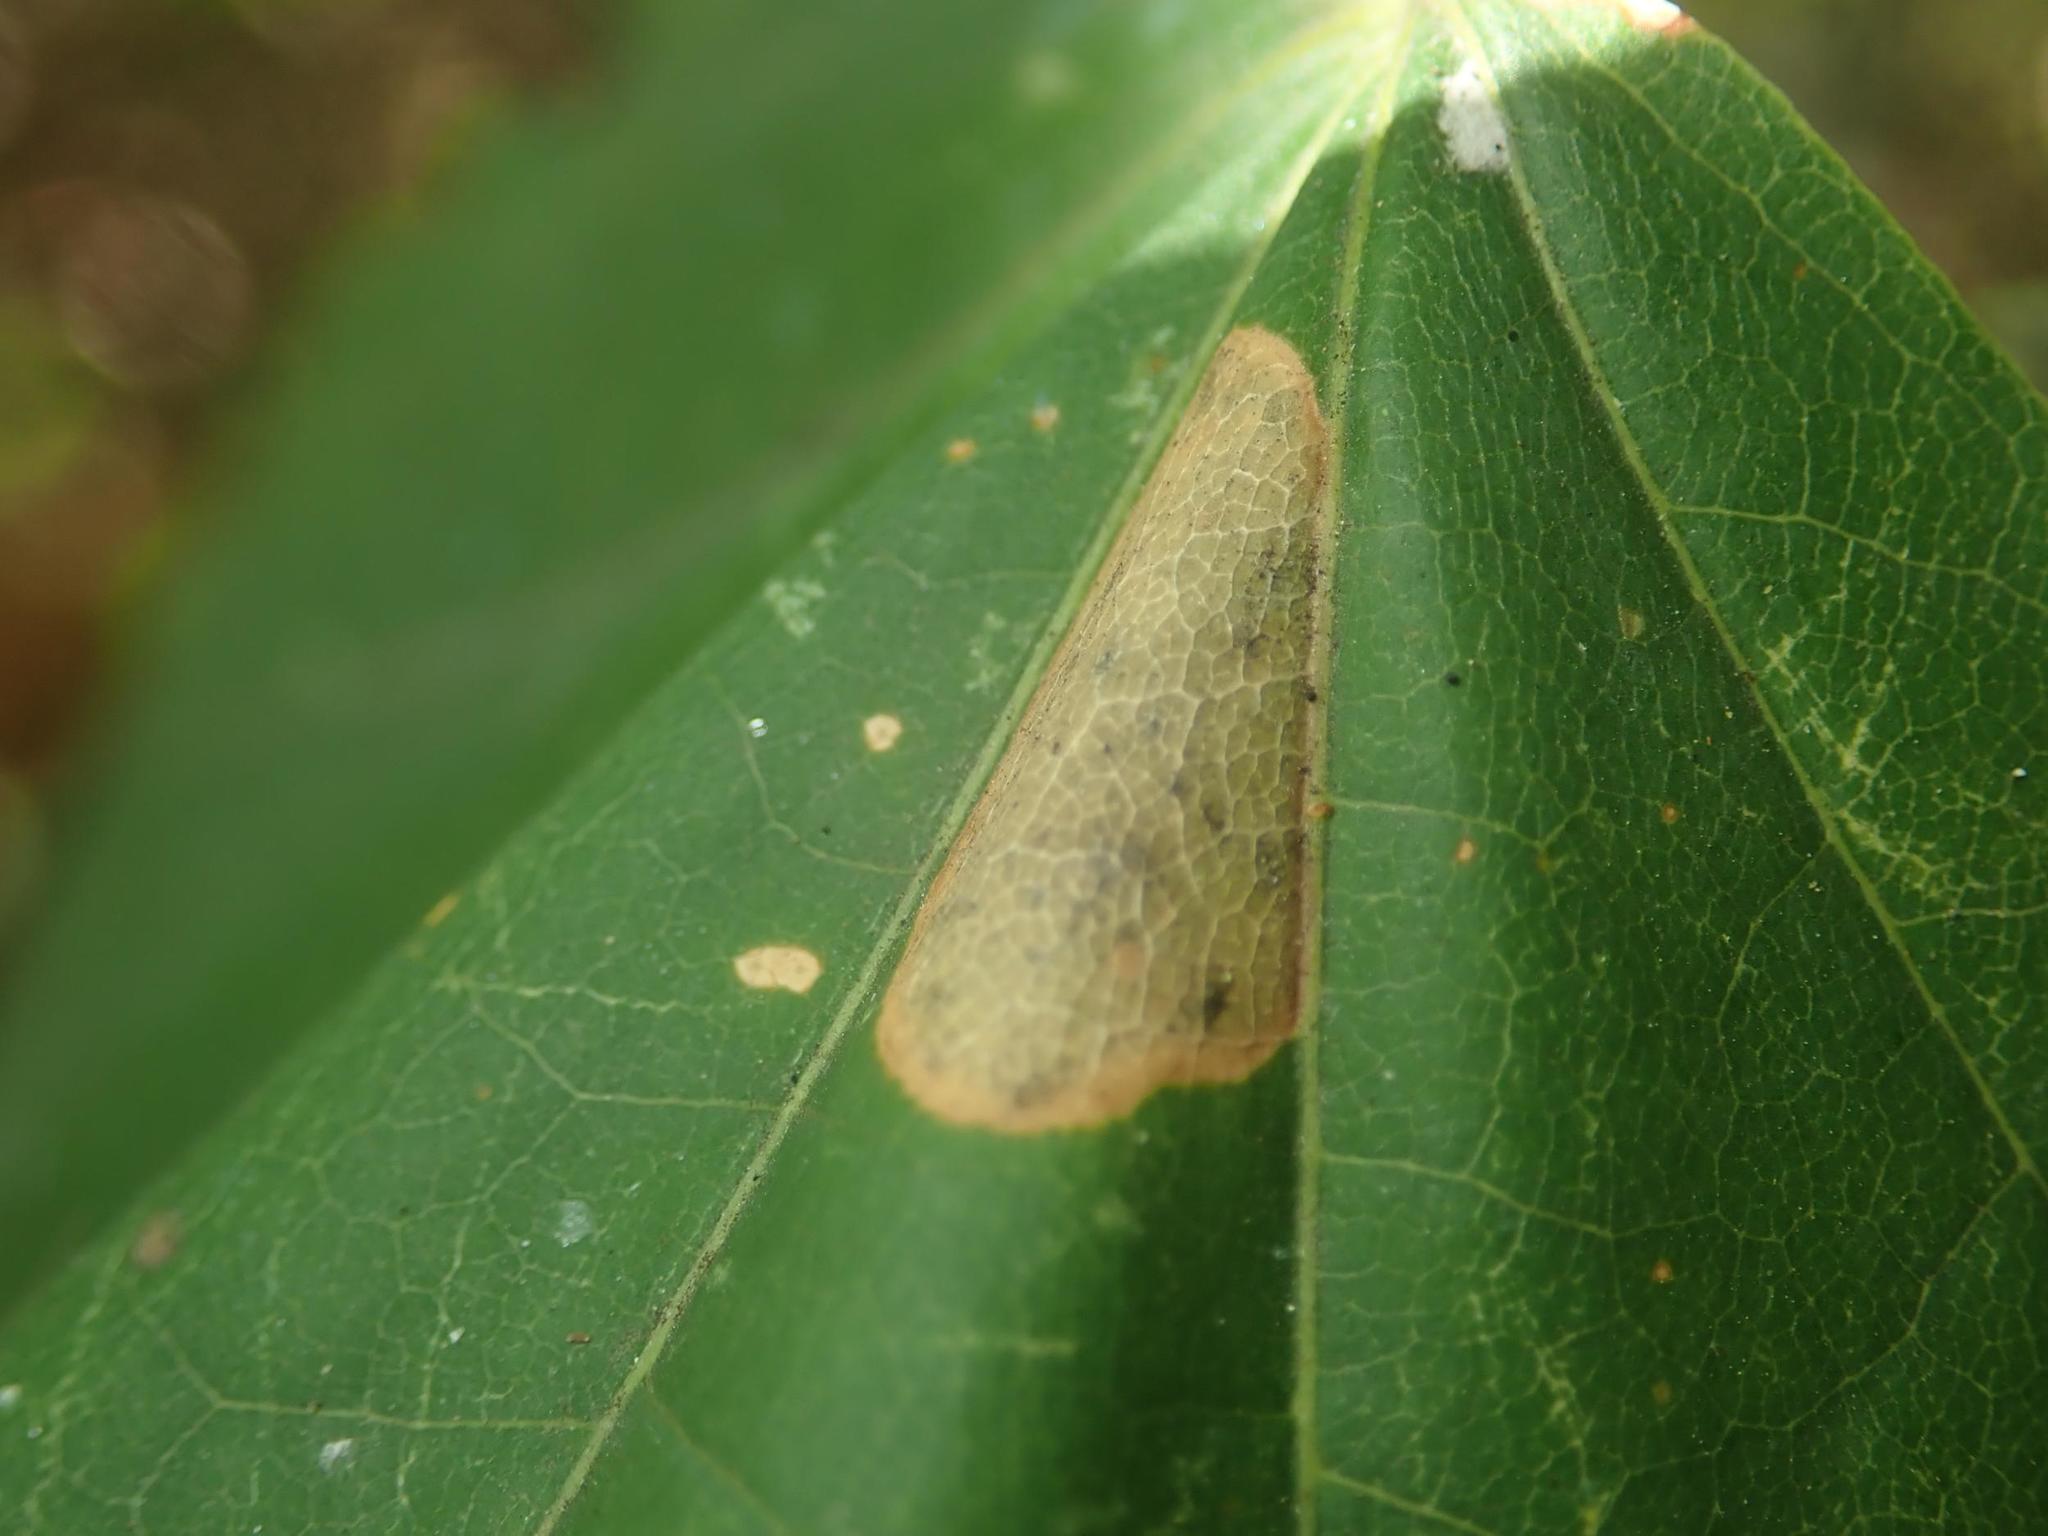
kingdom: Animalia
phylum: Arthropoda
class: Insecta
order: Lepidoptera
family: Gracillariidae
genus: Phyllonorycter
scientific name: Phyllonorycter joannisi
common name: White-bodied midget
